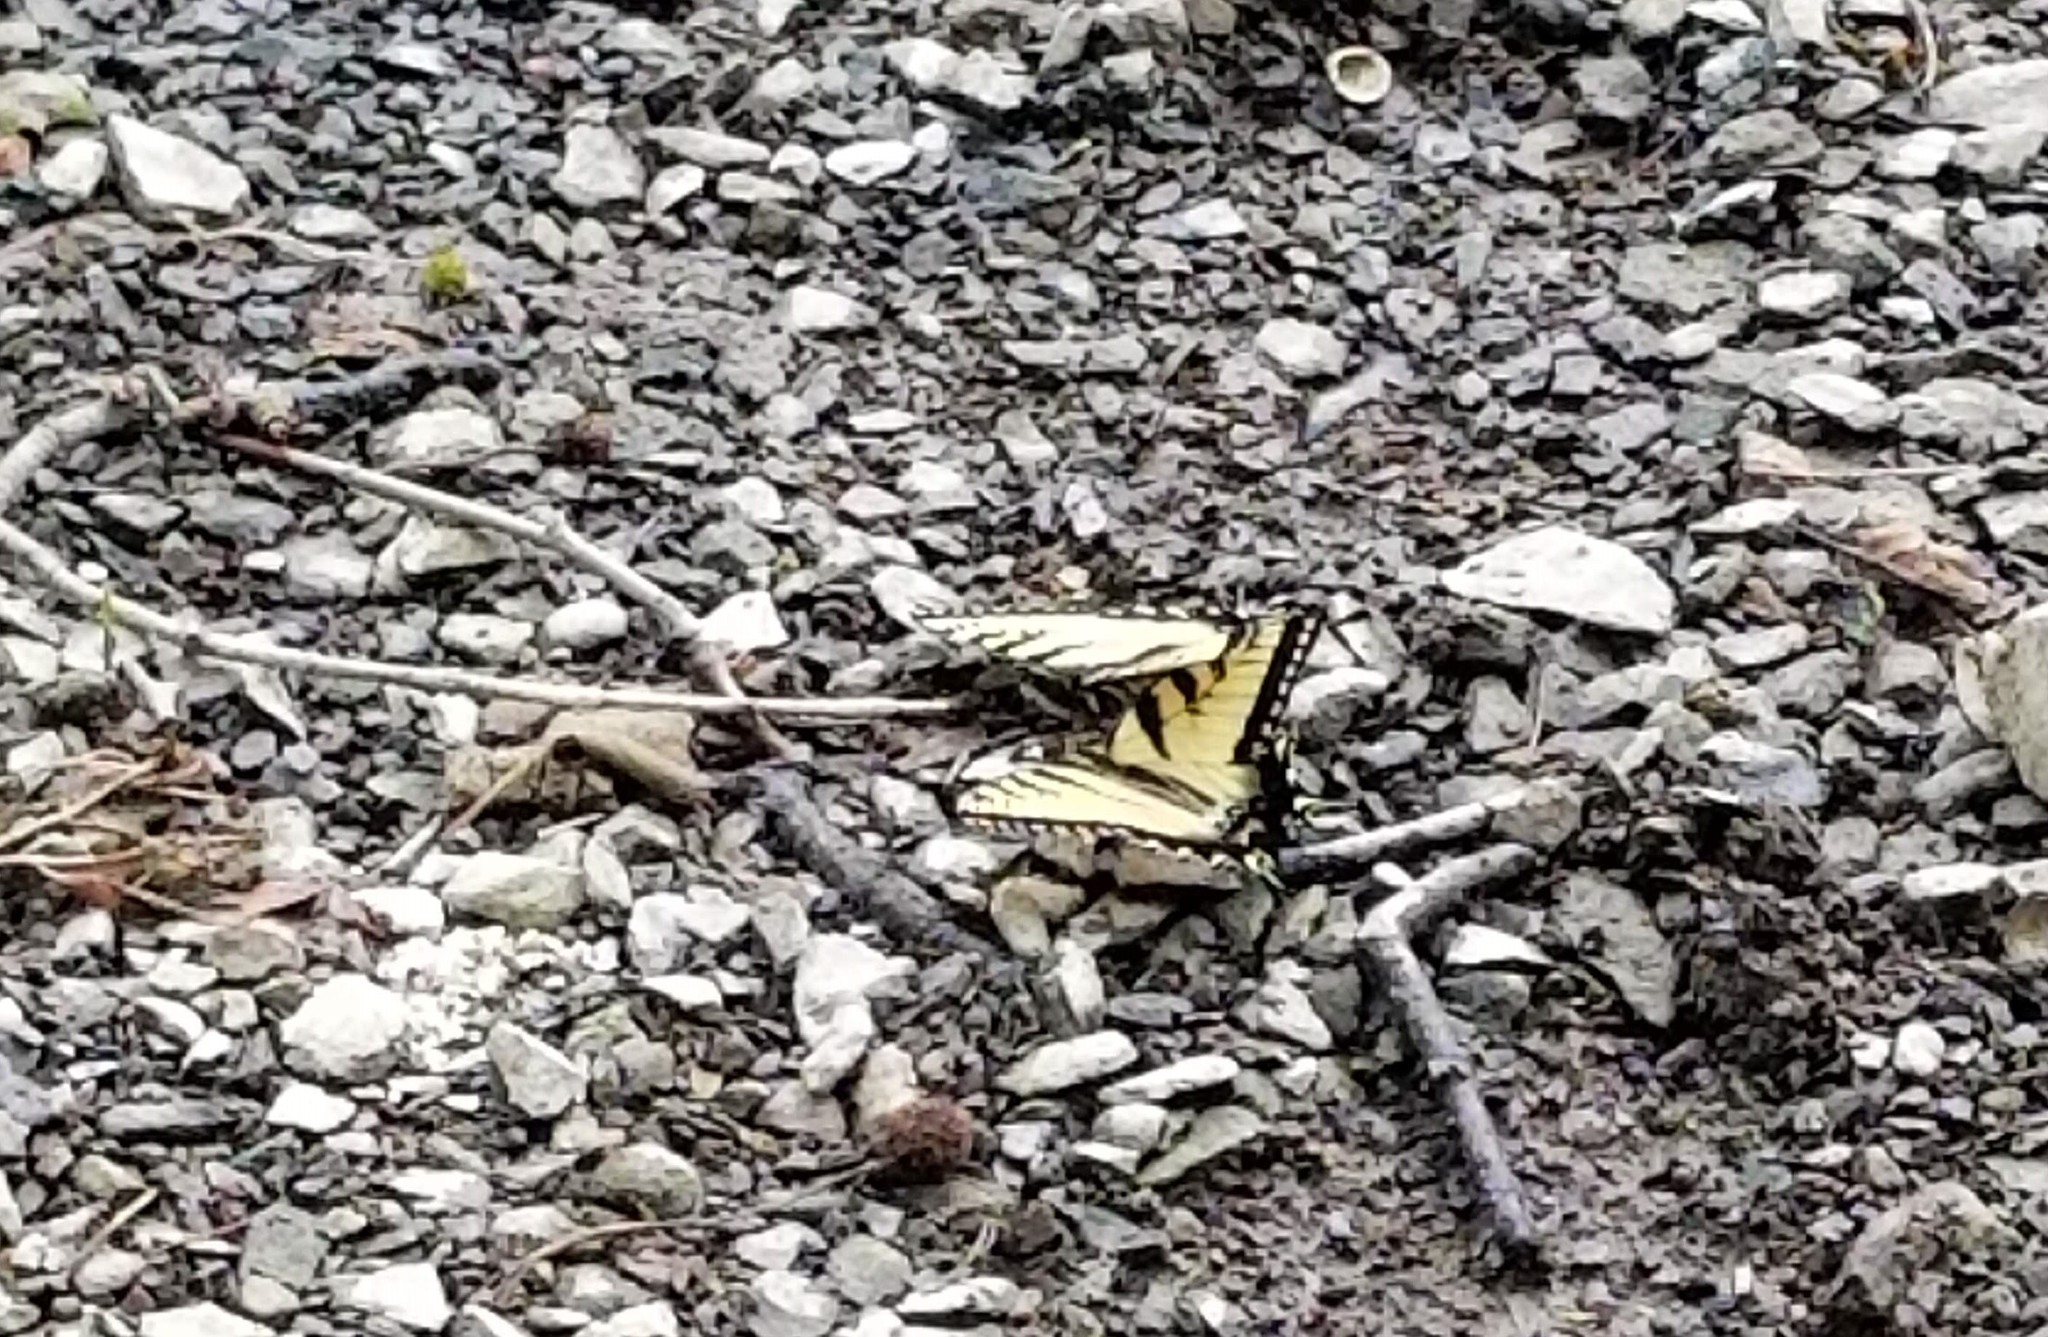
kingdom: Animalia
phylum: Arthropoda
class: Insecta
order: Lepidoptera
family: Papilionidae
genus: Papilio
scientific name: Papilio glaucus
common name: Tiger swallowtail
